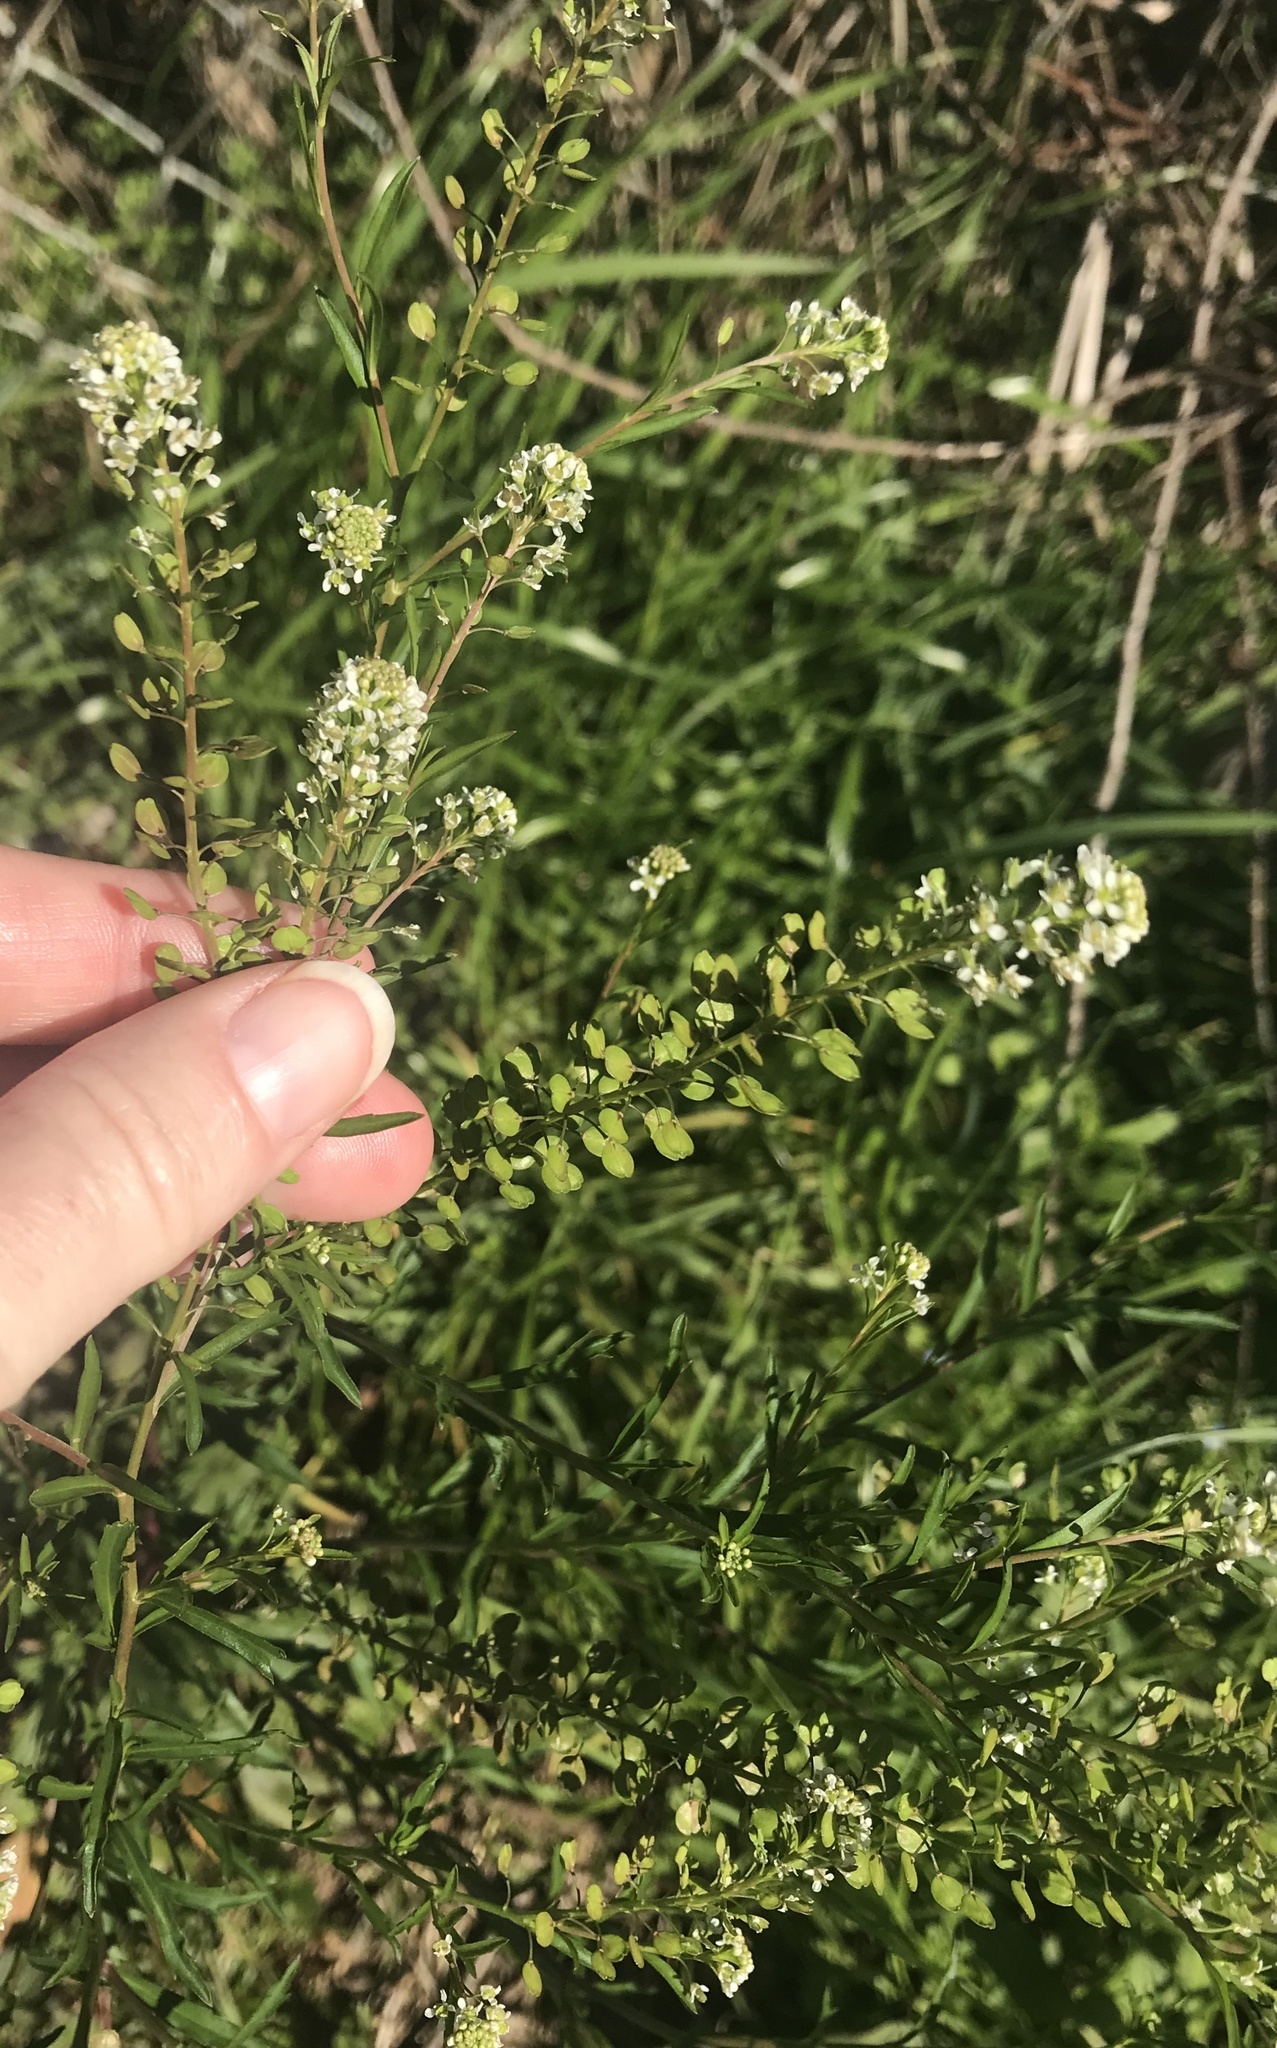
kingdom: Plantae
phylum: Tracheophyta
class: Magnoliopsida
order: Brassicales
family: Brassicaceae
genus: Lepidium
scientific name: Lepidium virginicum
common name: Least pepperwort
